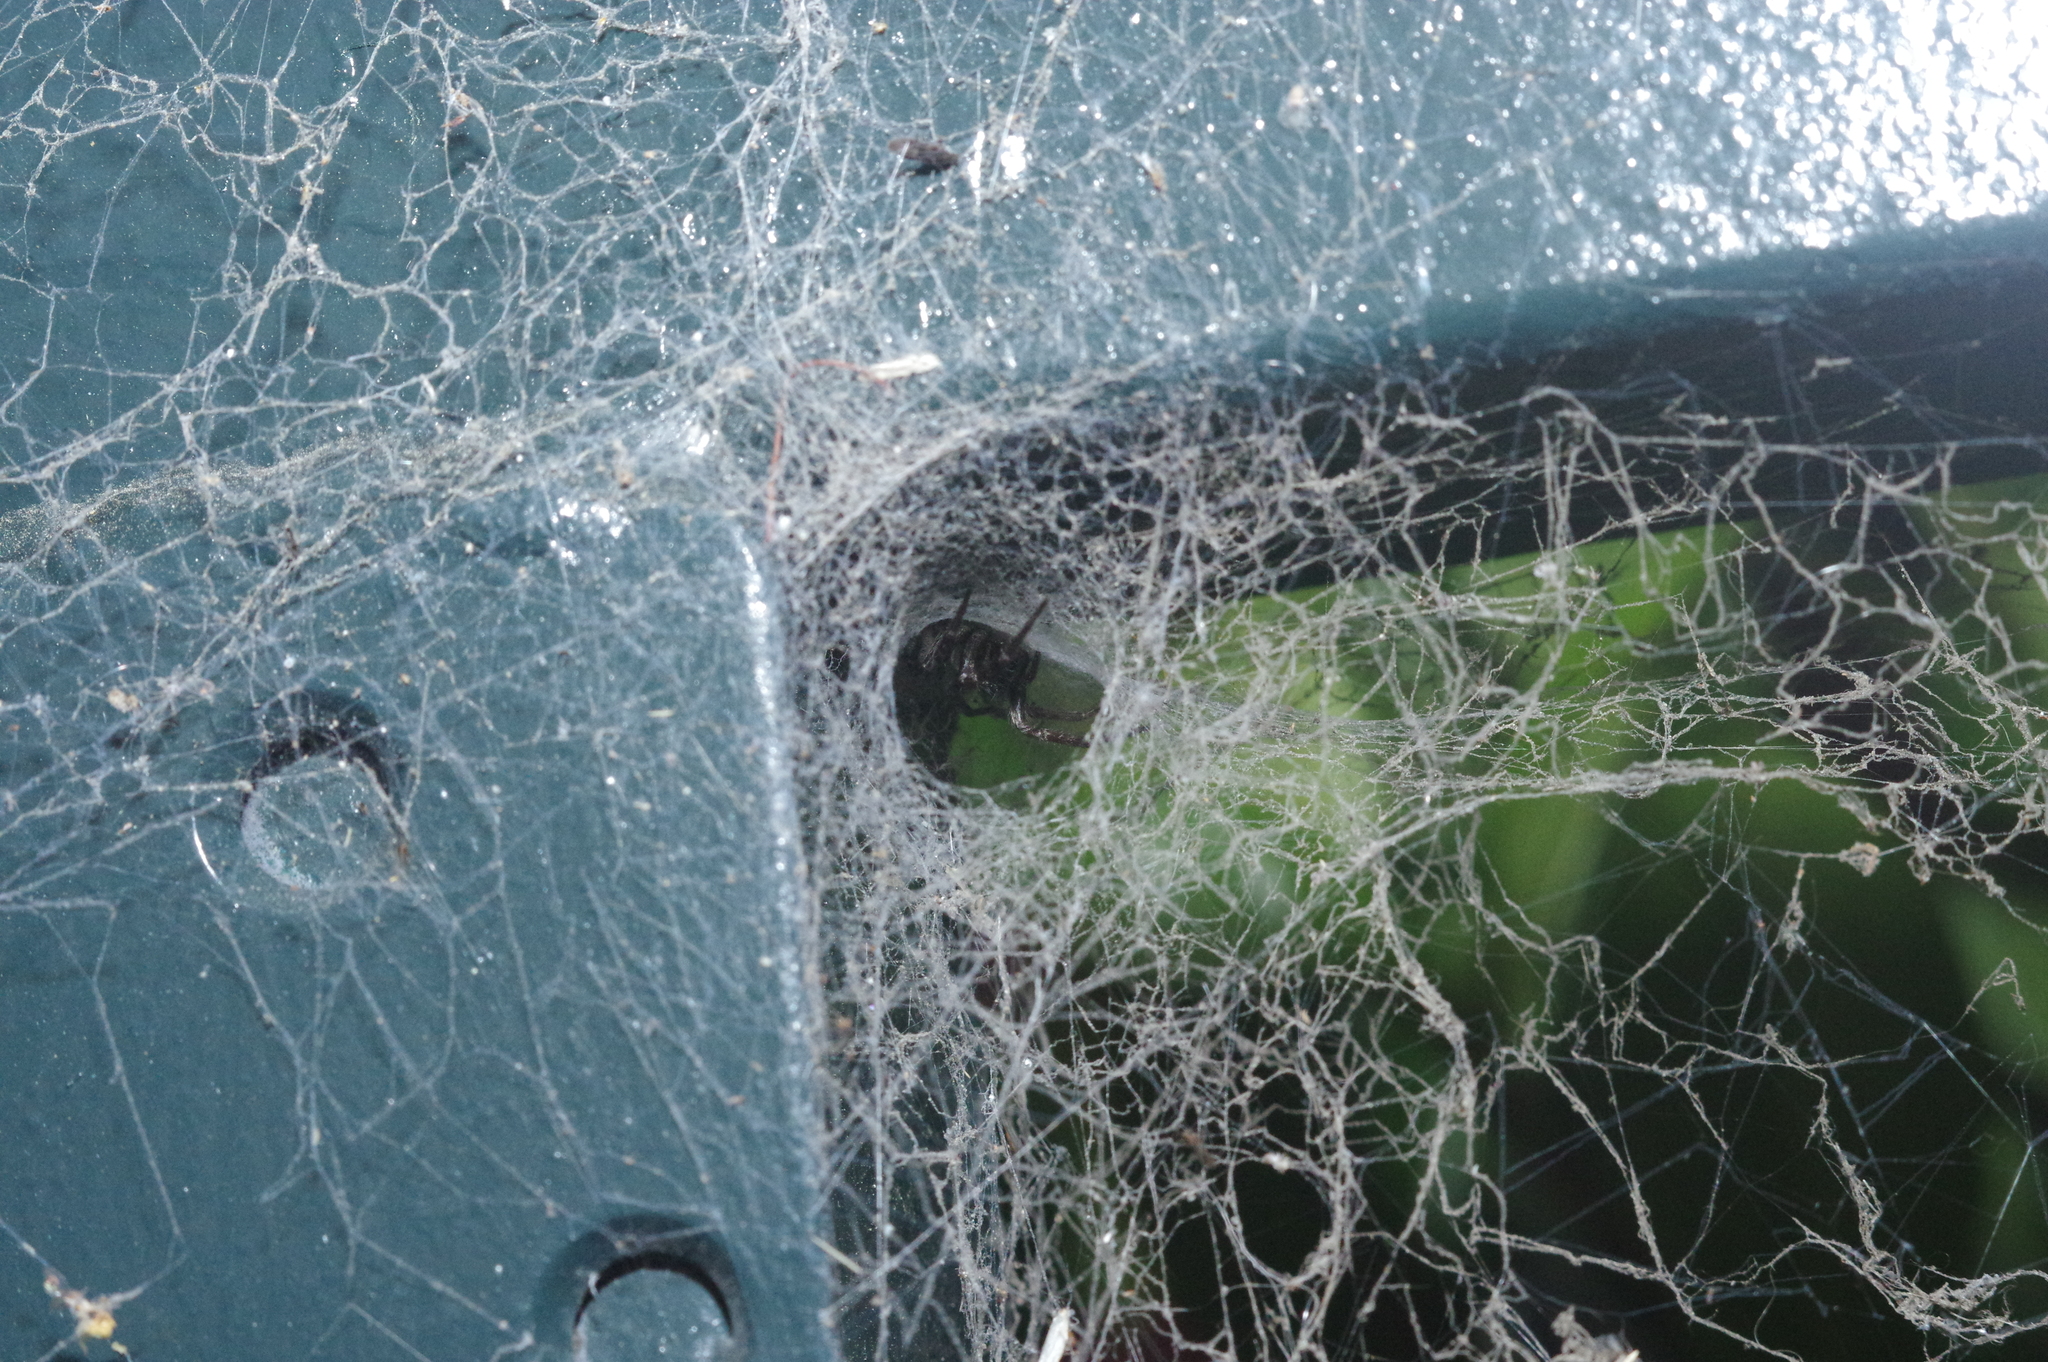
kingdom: Animalia
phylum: Arthropoda
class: Arachnida
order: Araneae
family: Desidae
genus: Badumna
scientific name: Badumna longinqua
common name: Gray house spider
